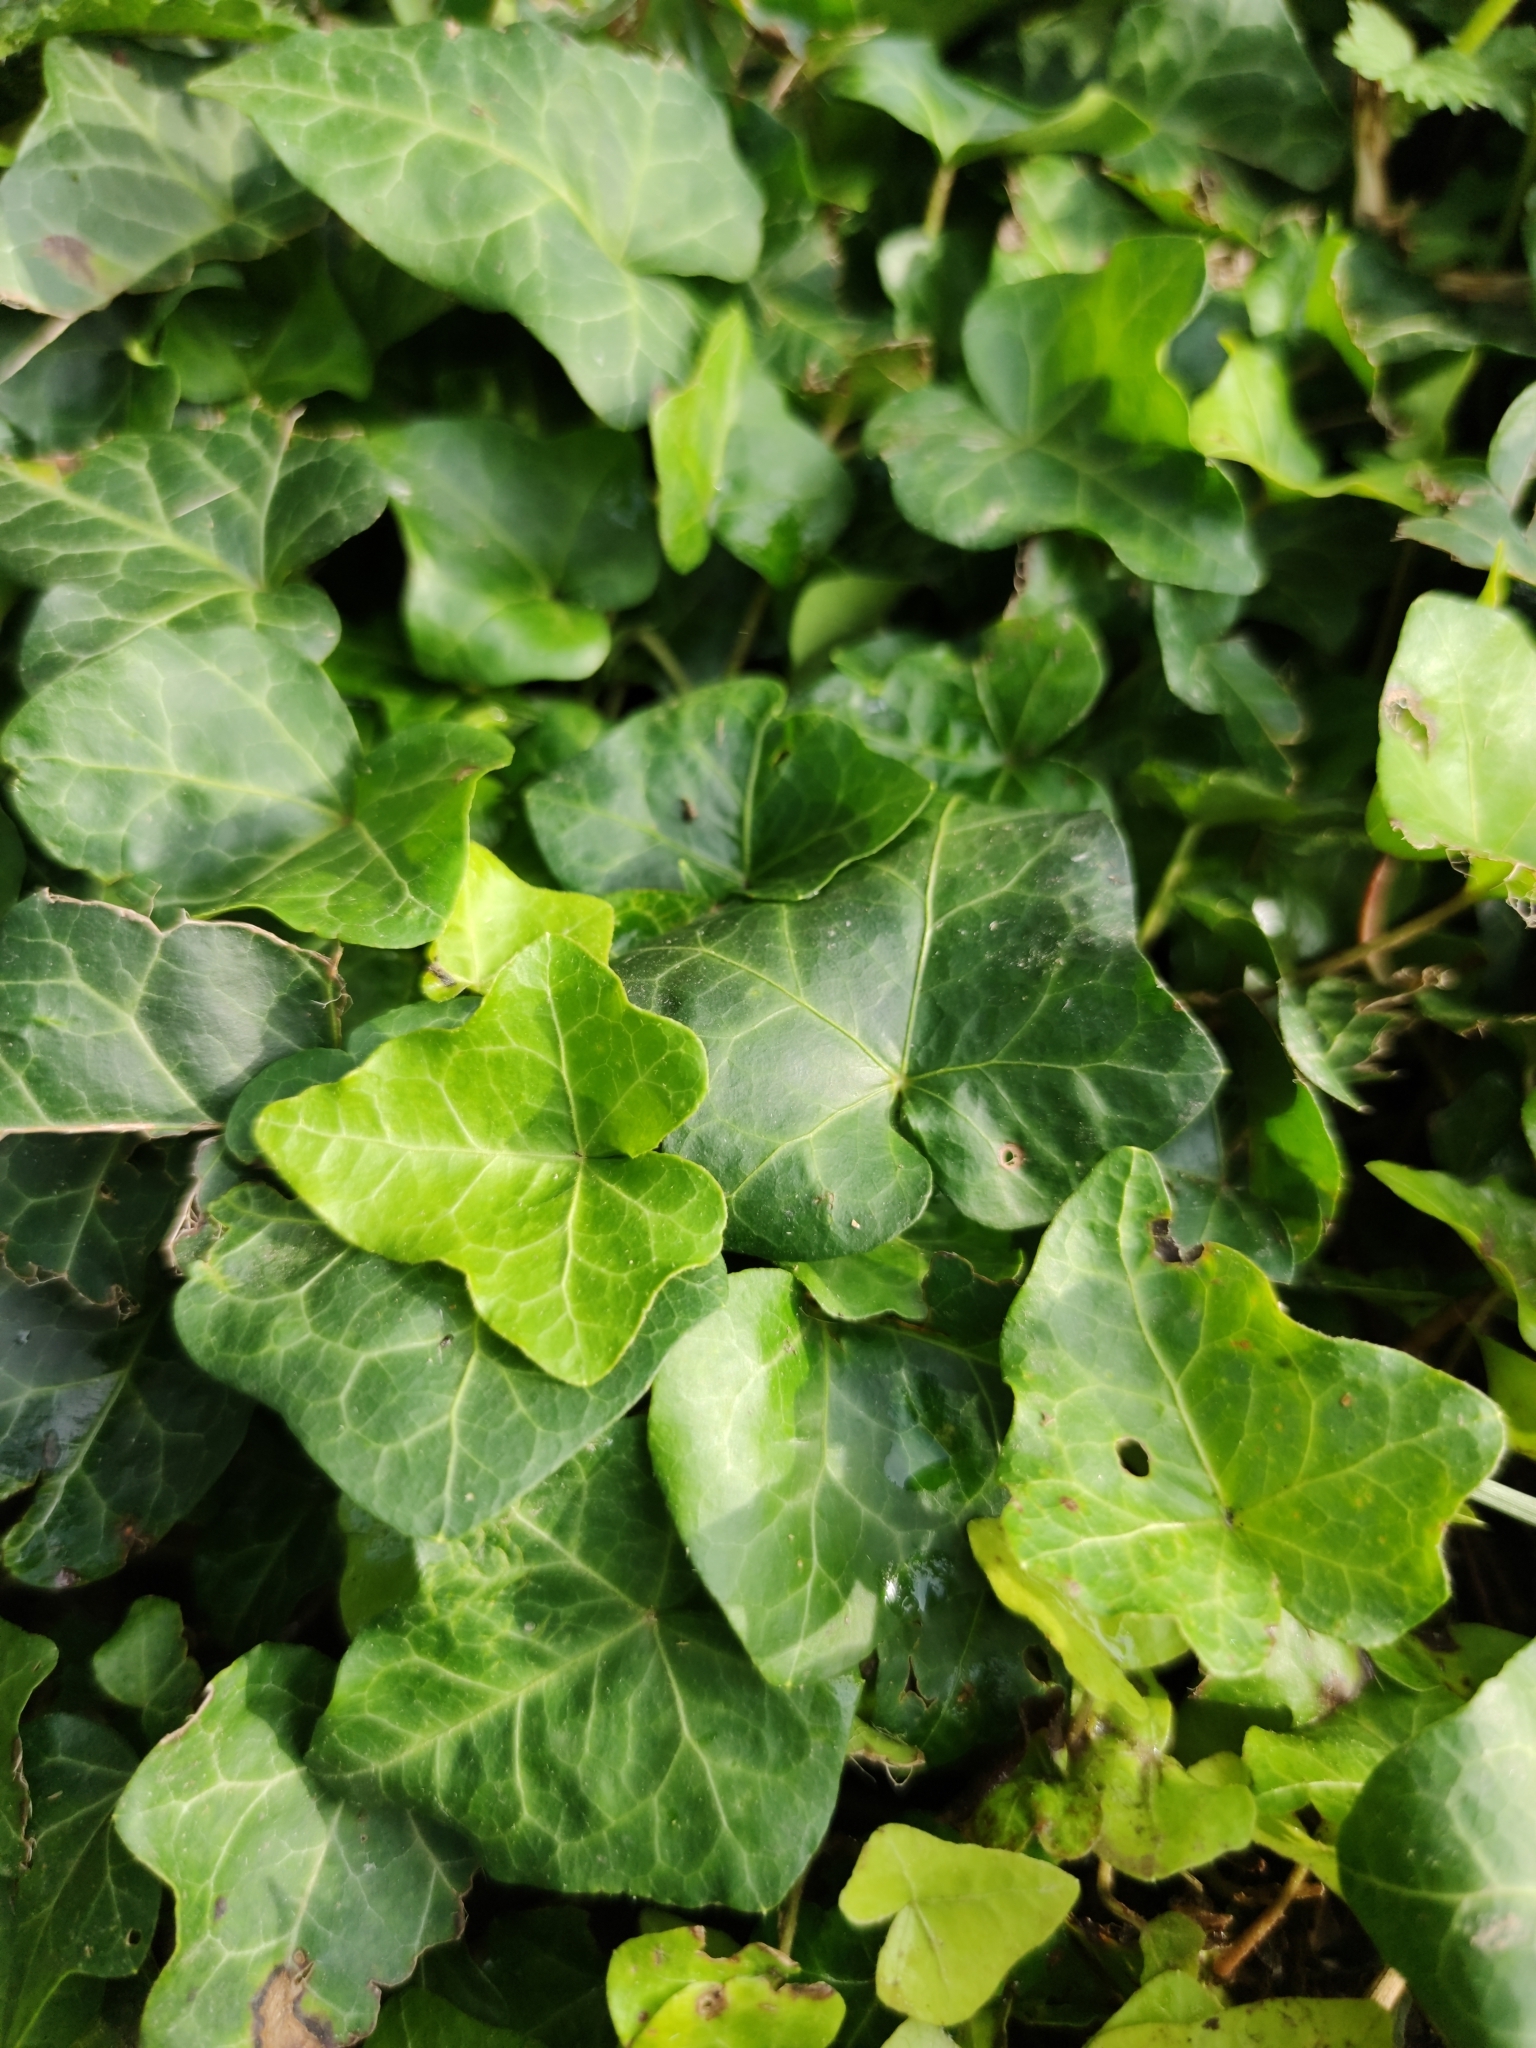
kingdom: Plantae
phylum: Tracheophyta
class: Magnoliopsida
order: Apiales
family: Araliaceae
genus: Hedera
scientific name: Hedera helix
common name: Ivy
